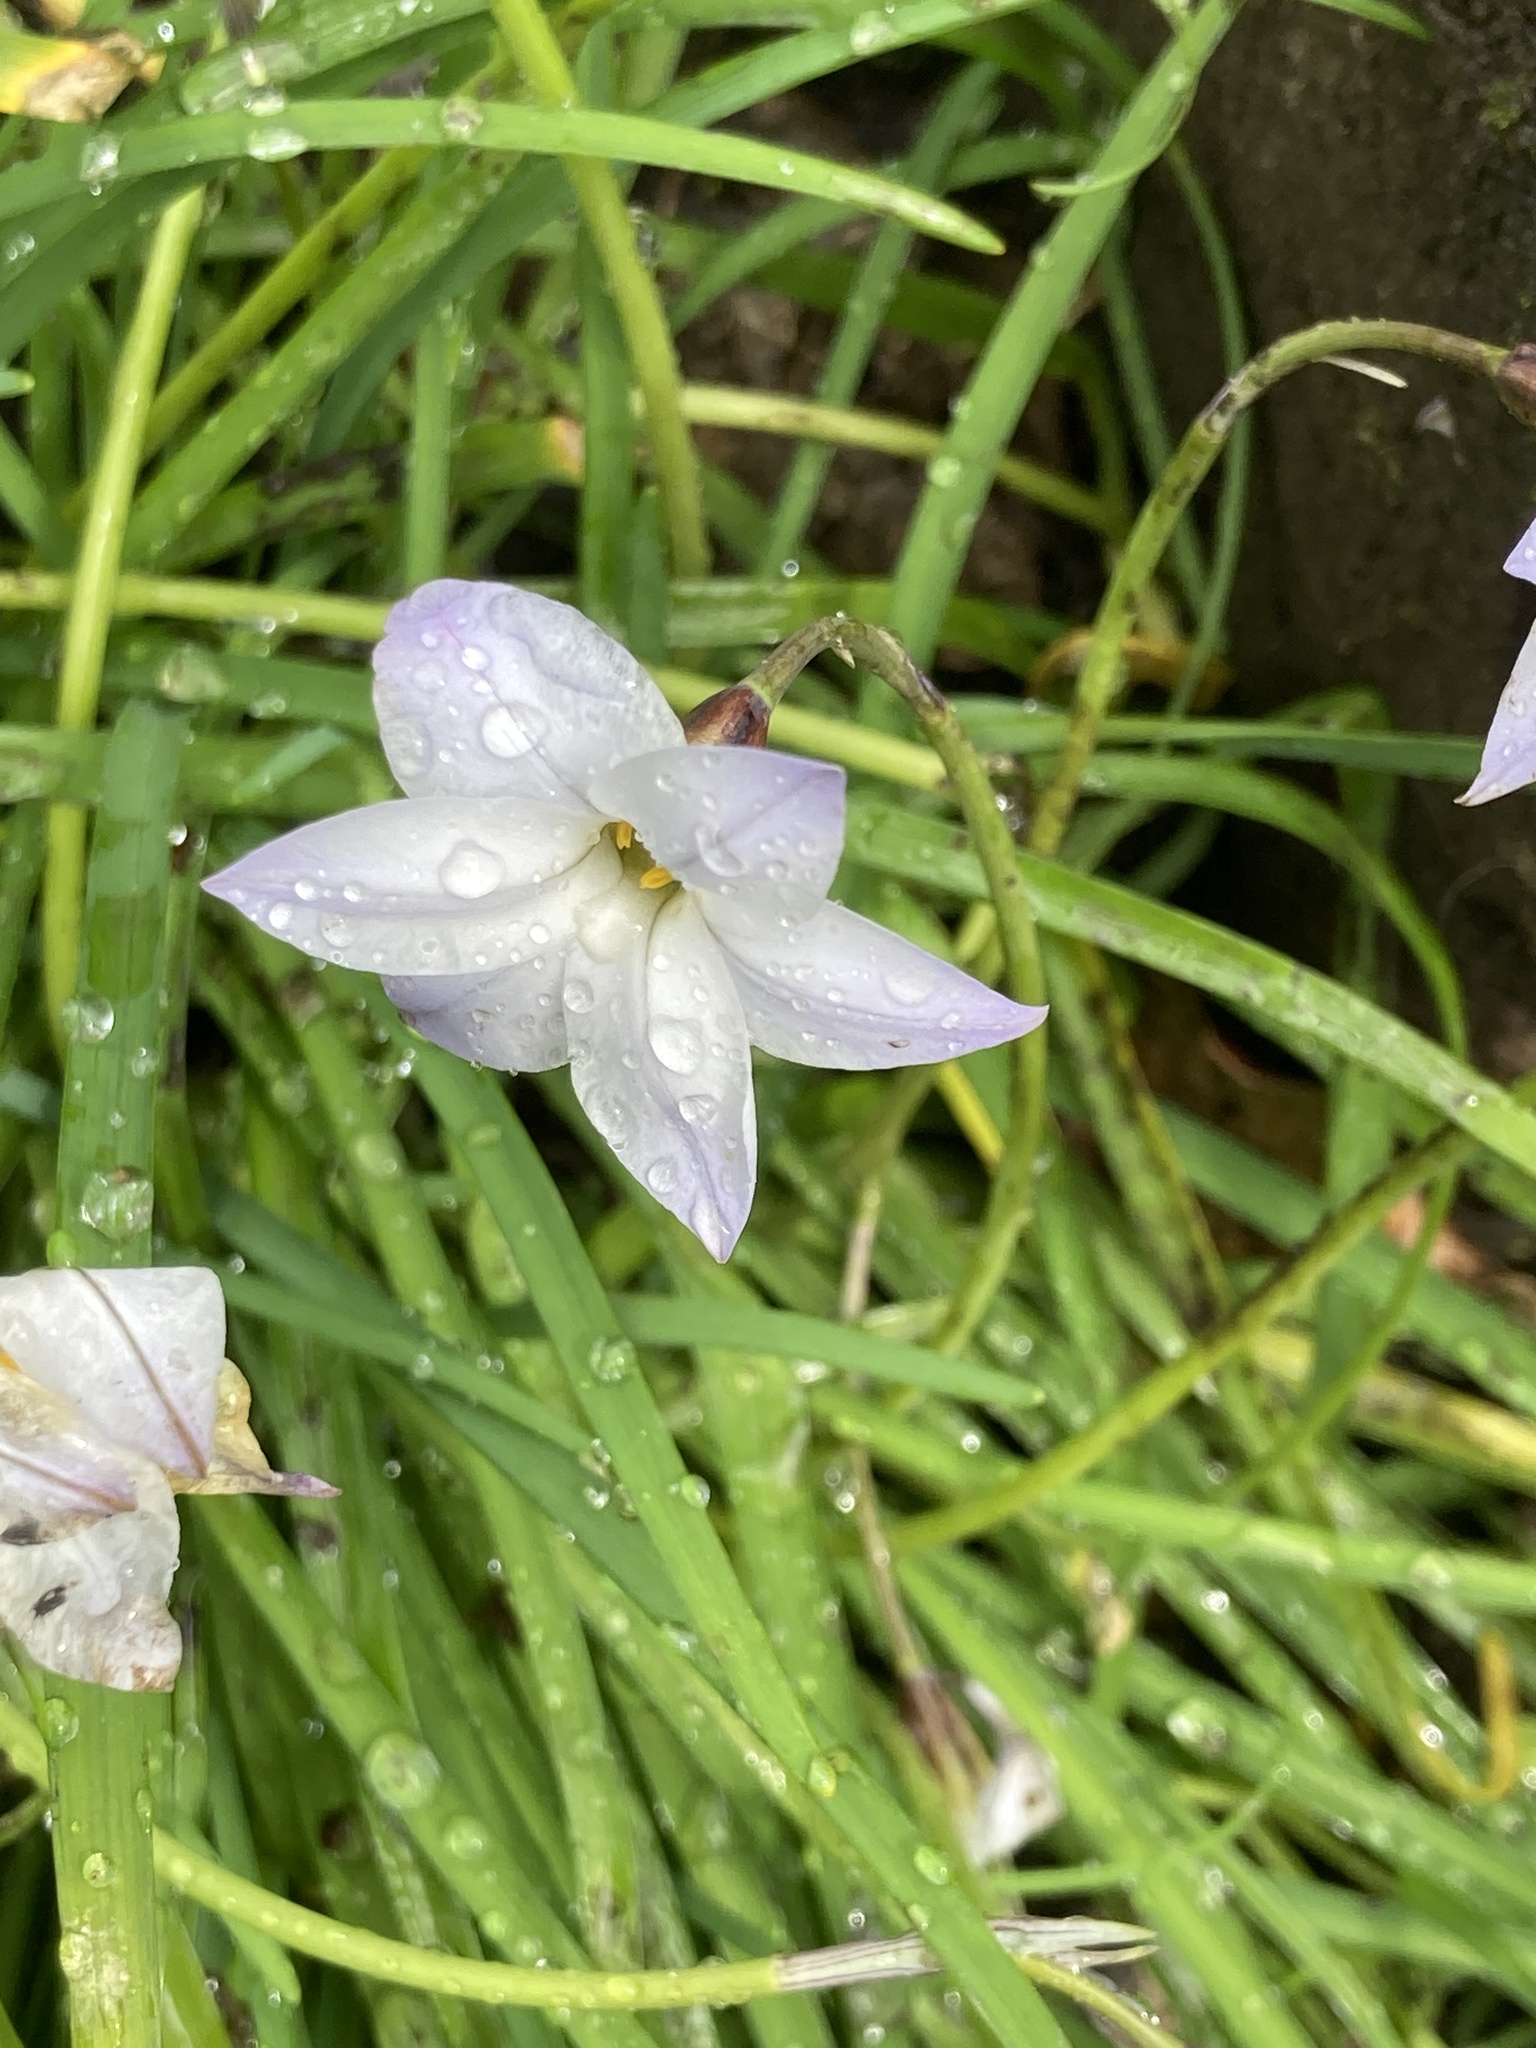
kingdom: Plantae
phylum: Tracheophyta
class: Liliopsida
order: Asparagales
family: Amaryllidaceae
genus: Ipheion
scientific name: Ipheion uniflorum
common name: Spring starflower
